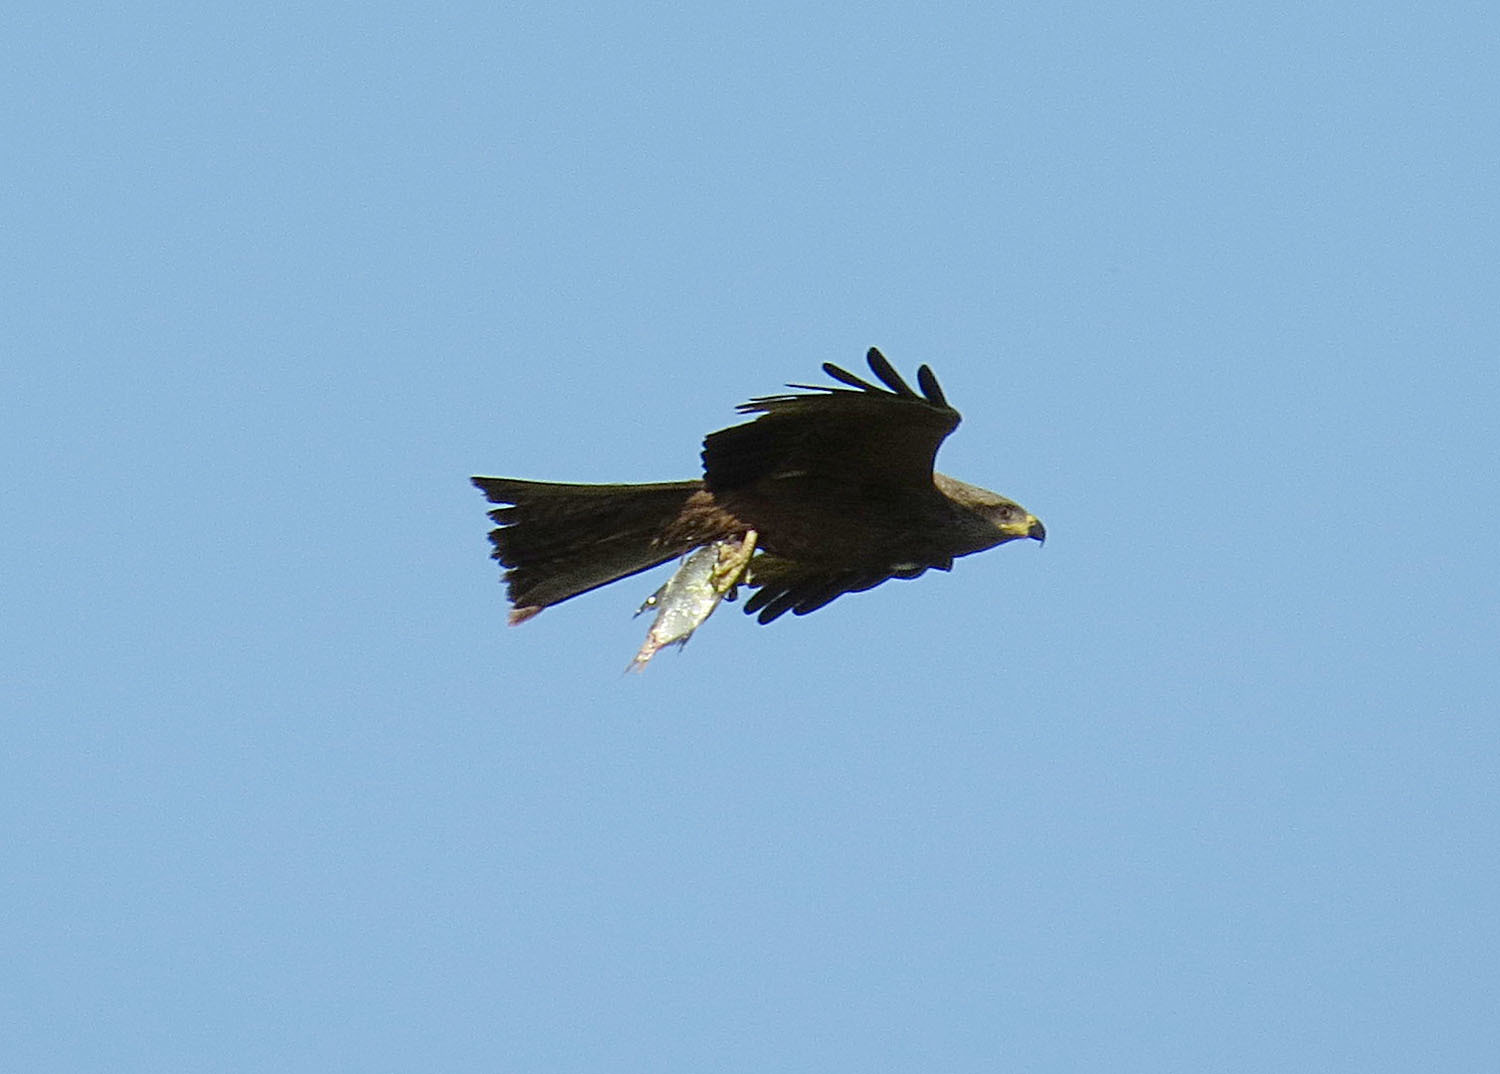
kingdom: Animalia
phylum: Chordata
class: Aves
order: Accipitriformes
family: Accipitridae
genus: Milvus
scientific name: Milvus migrans
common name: Black kite
